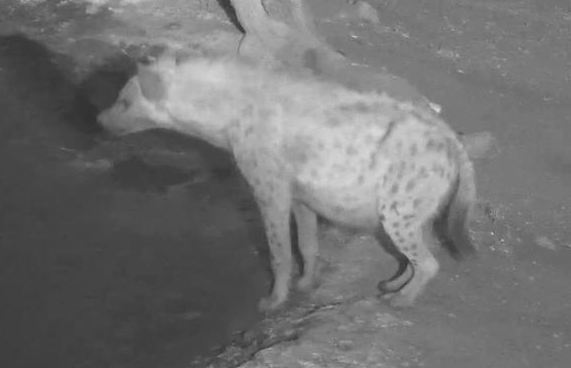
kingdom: Animalia
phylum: Chordata
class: Mammalia
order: Carnivora
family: Hyaenidae
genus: Crocuta
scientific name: Crocuta crocuta
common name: Spotted hyaena
